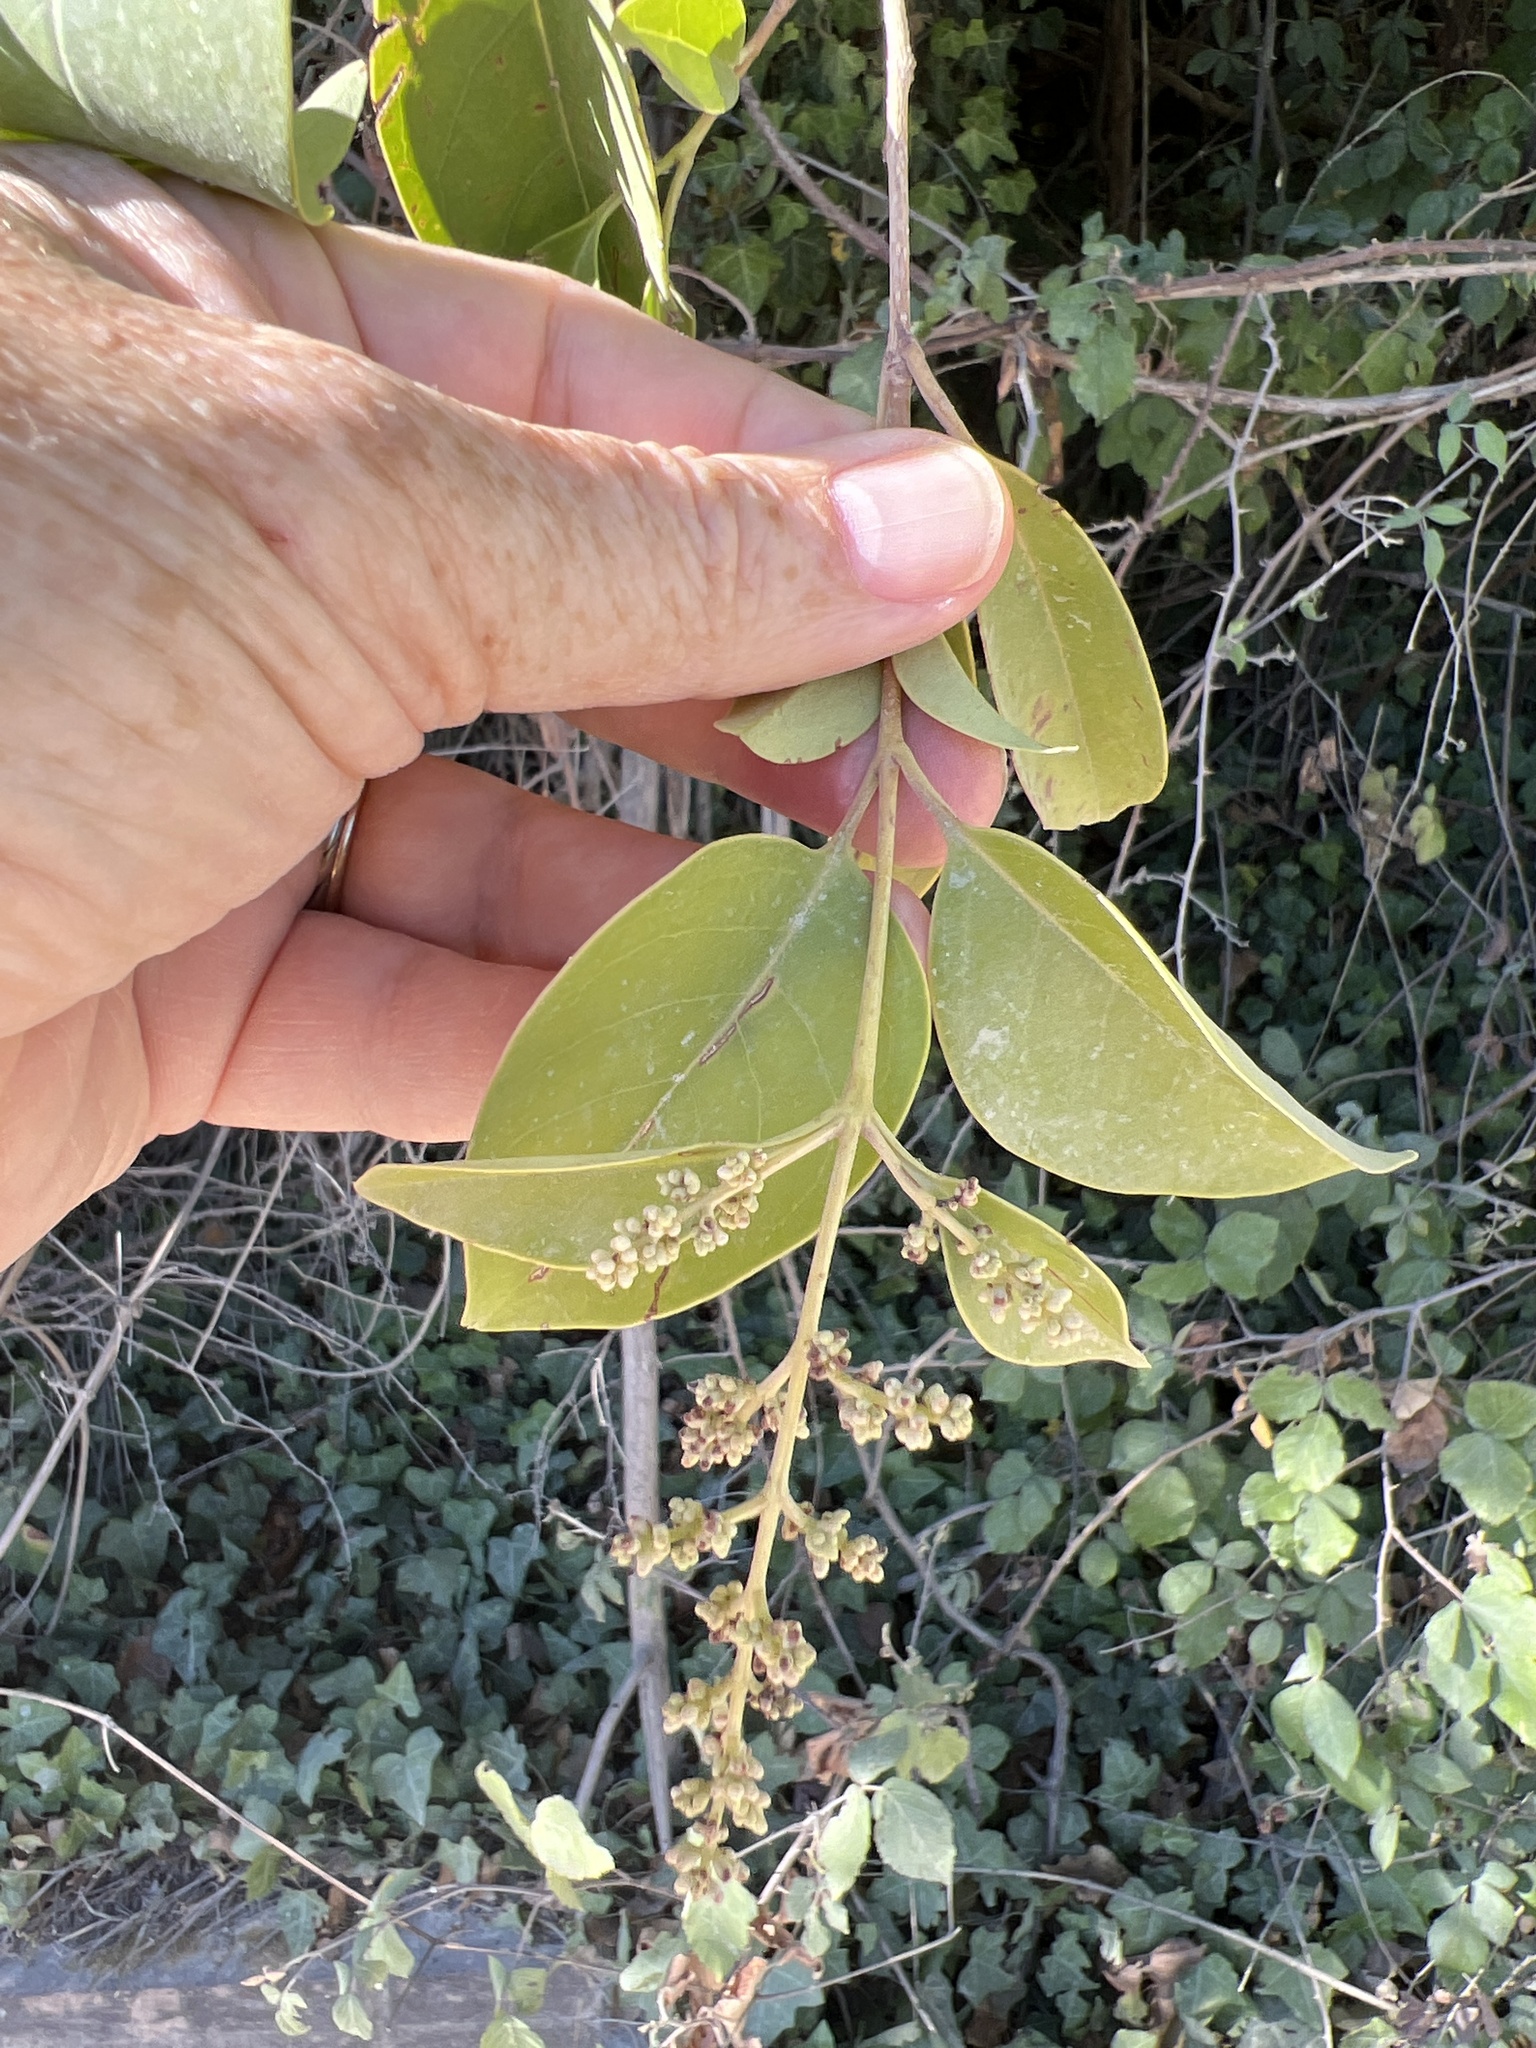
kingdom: Plantae
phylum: Tracheophyta
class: Magnoliopsida
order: Lamiales
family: Oleaceae
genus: Ligustrum
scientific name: Ligustrum lucidum
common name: Glossy privet
